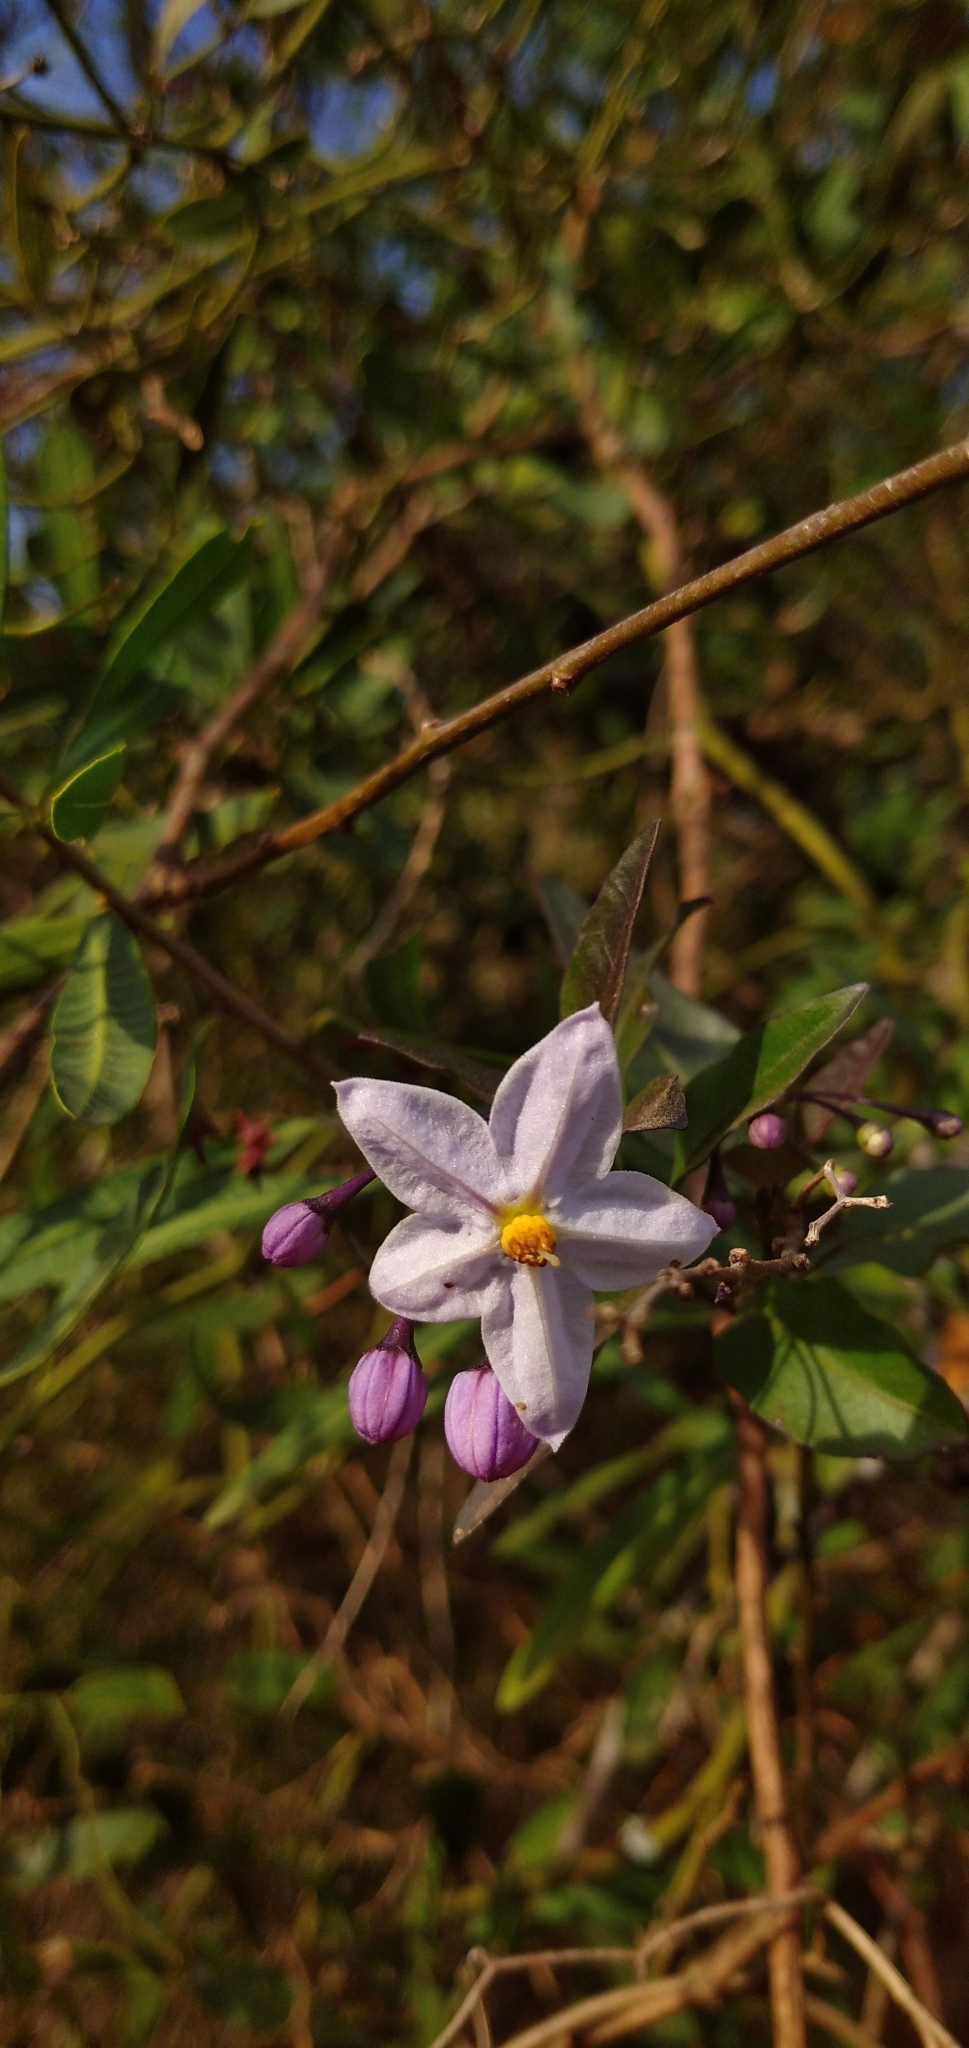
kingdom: Plantae
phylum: Tracheophyta
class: Magnoliopsida
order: Solanales
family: Solanaceae
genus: Solanum
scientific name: Solanum laxum
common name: Nightshade
